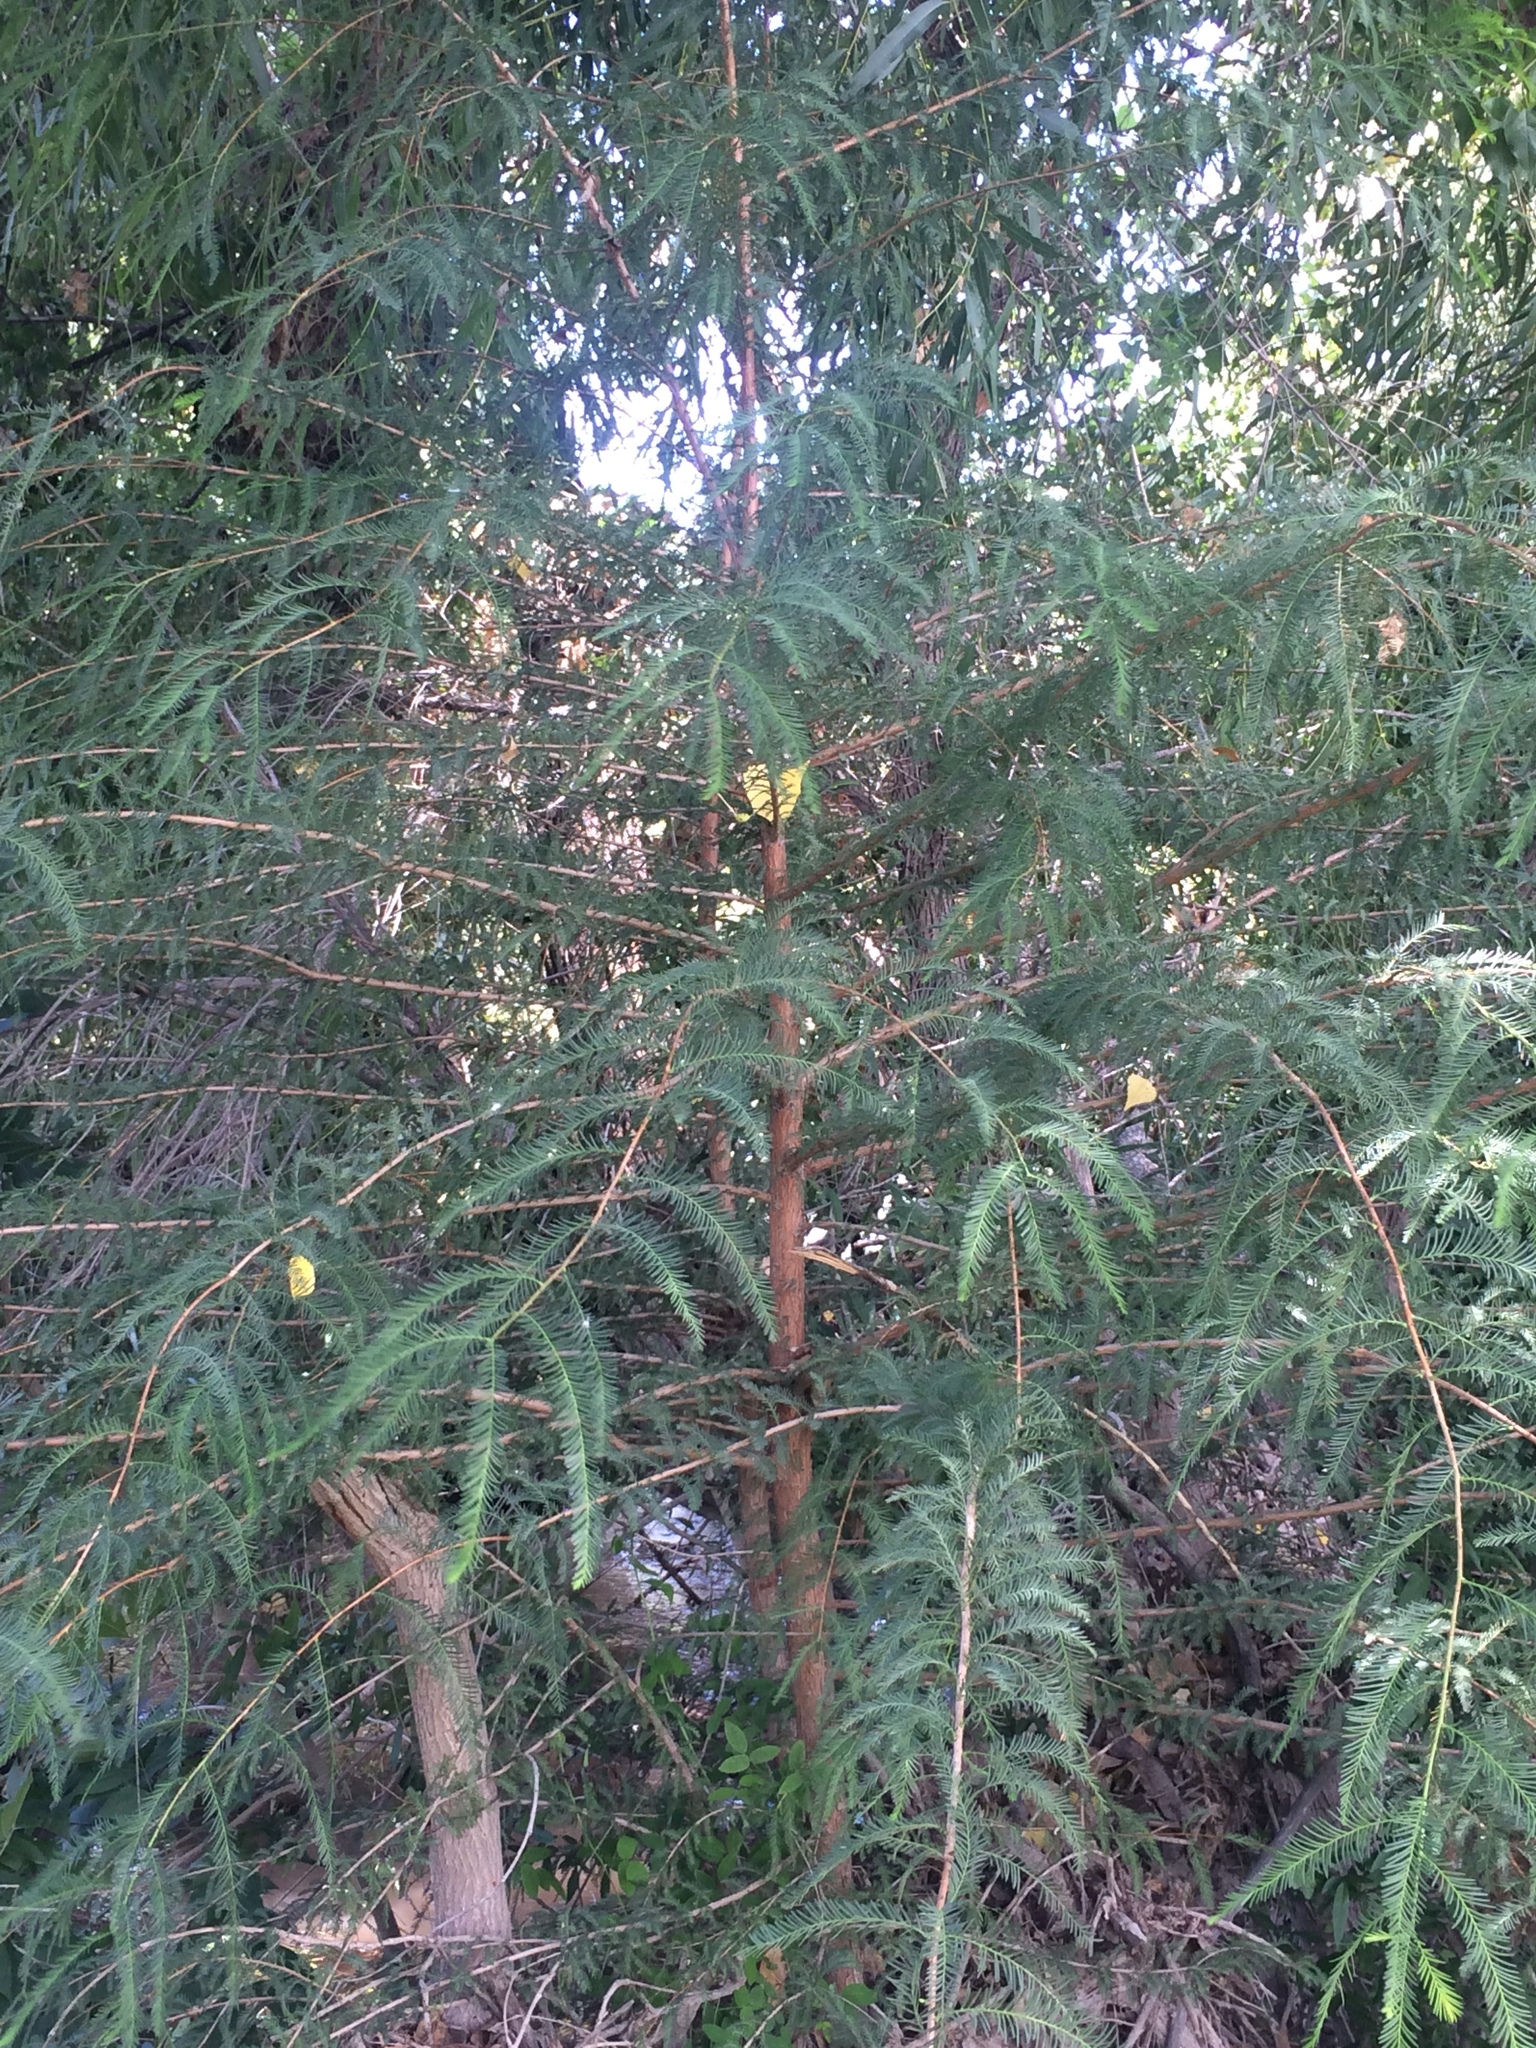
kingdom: Plantae
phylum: Tracheophyta
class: Pinopsida
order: Pinales
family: Cupressaceae
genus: Taxodium
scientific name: Taxodium mucronatum
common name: Montezume bald cypress
